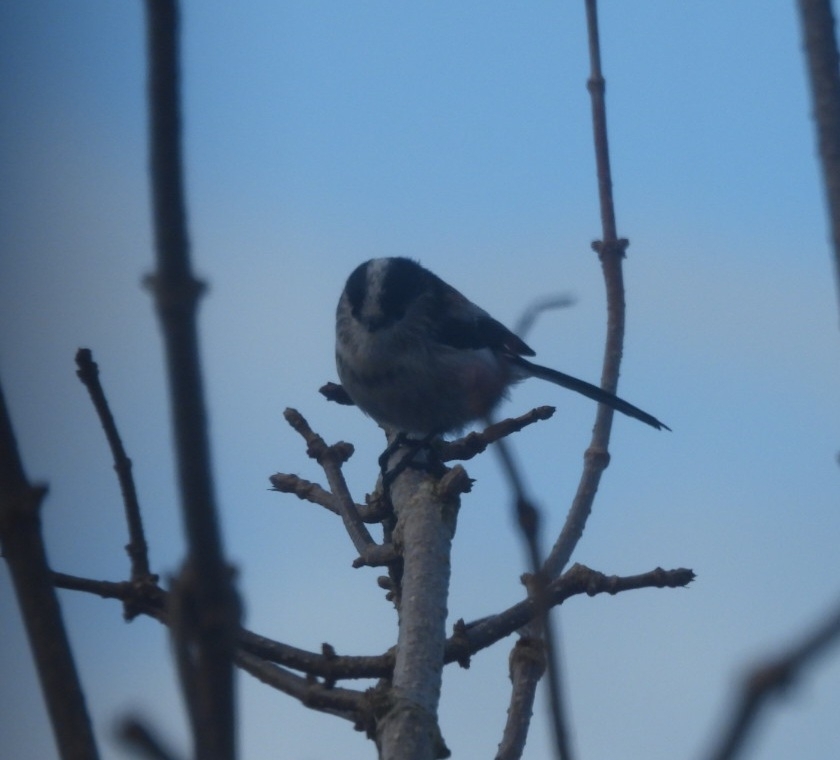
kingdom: Animalia
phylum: Chordata
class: Aves
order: Passeriformes
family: Aegithalidae
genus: Aegithalos
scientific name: Aegithalos caudatus
